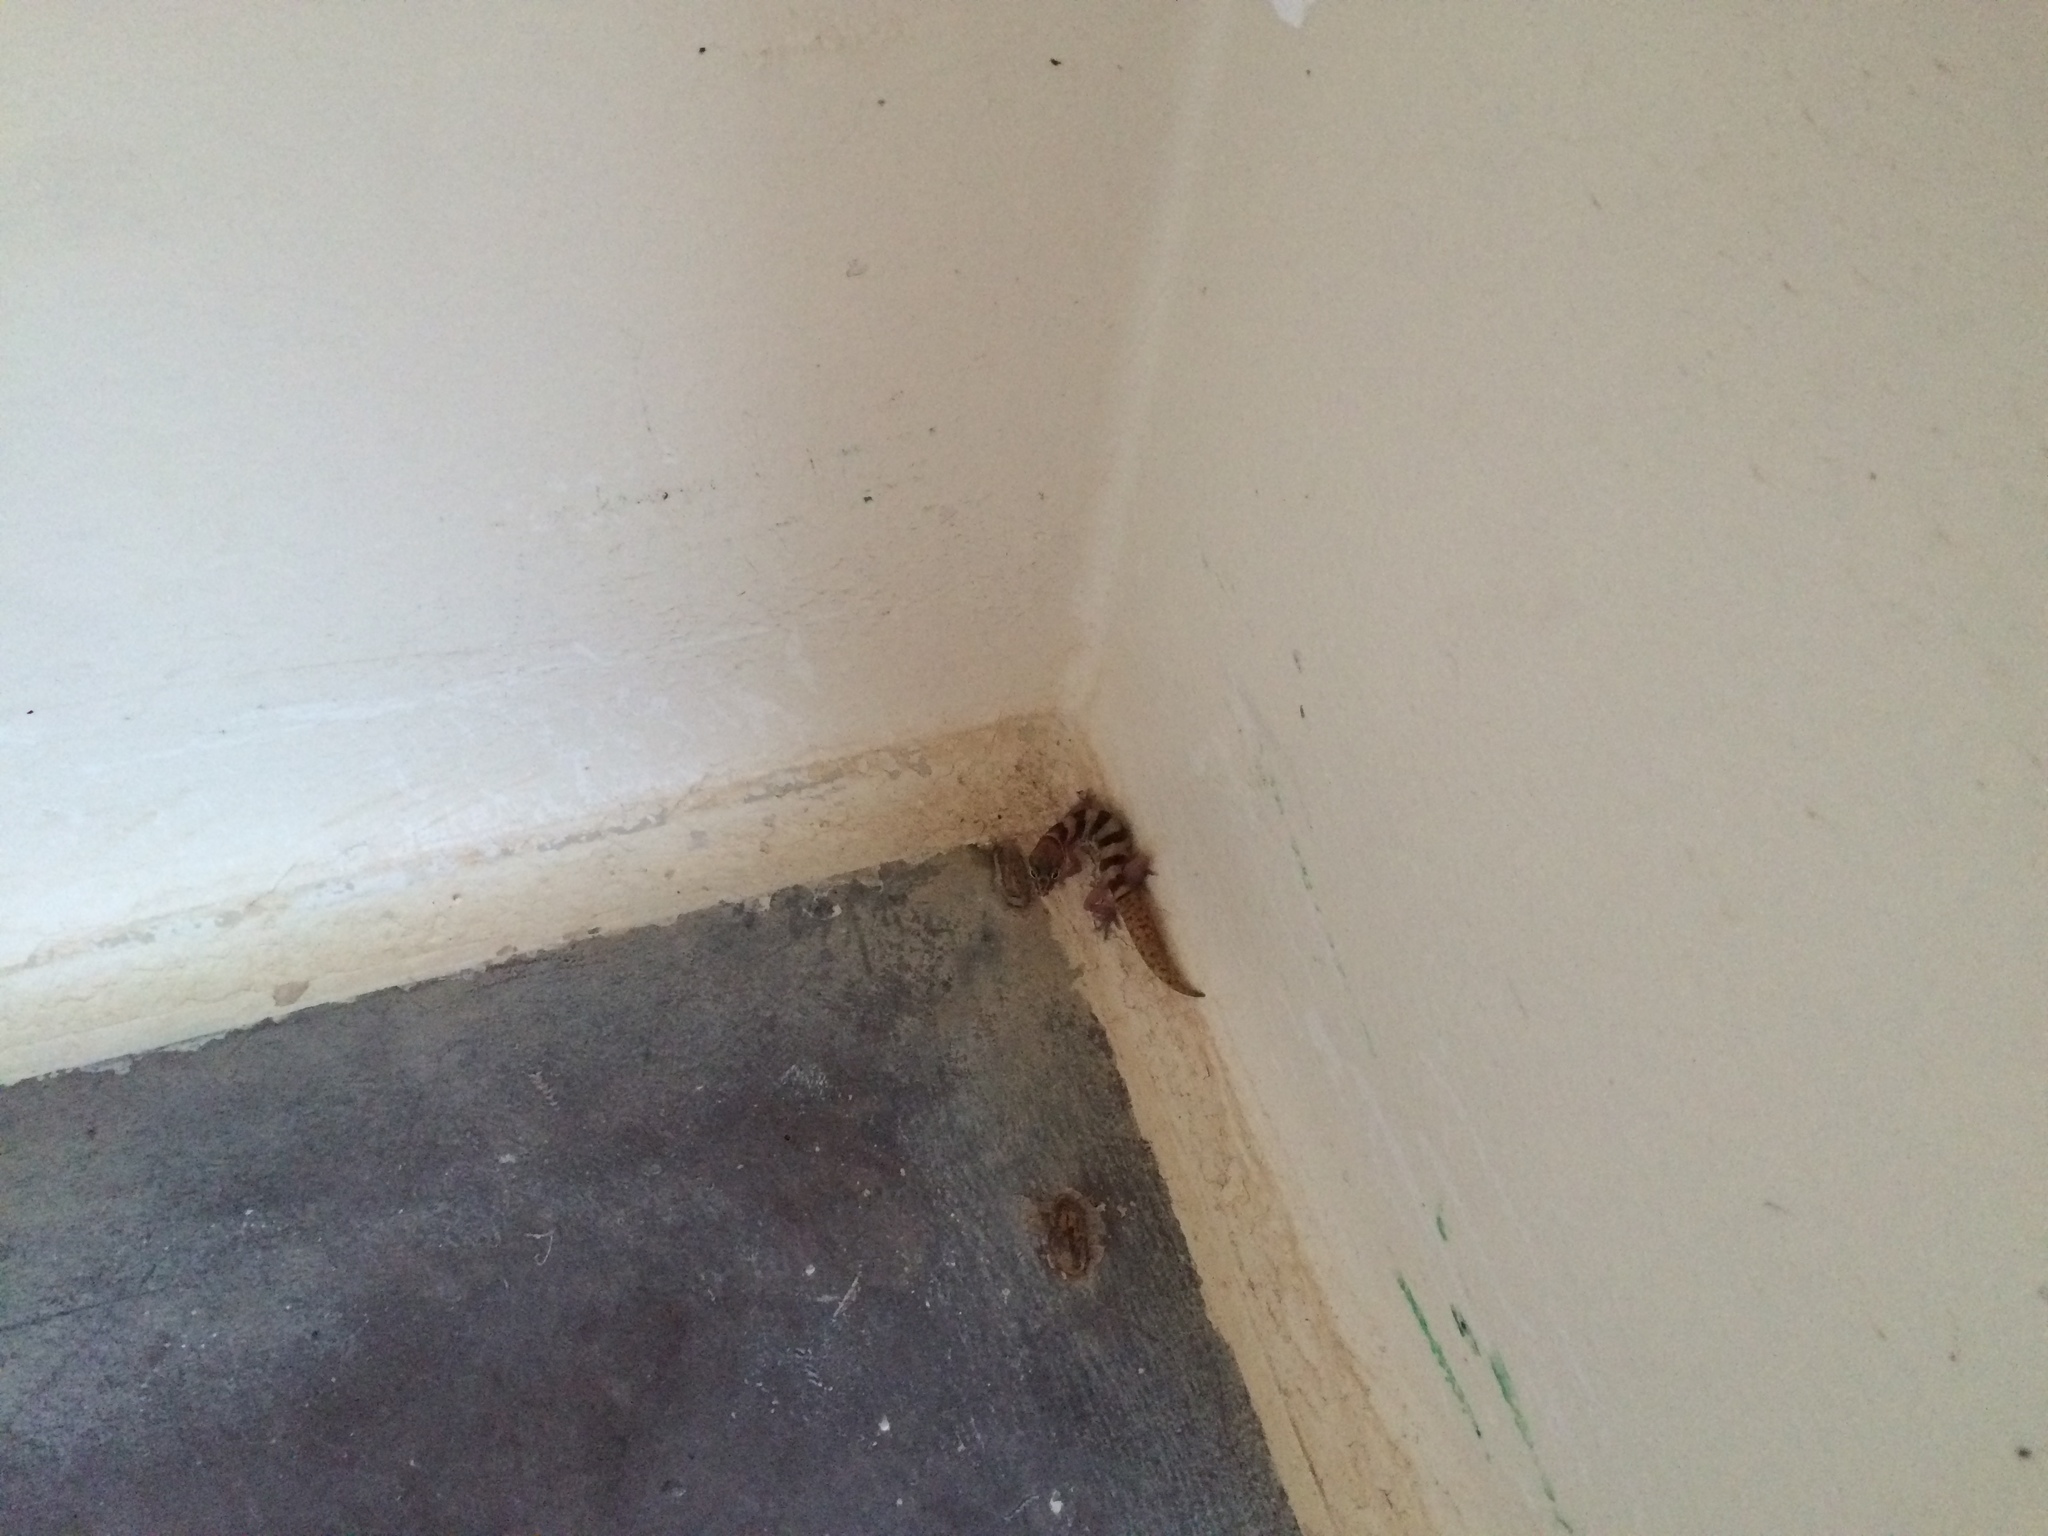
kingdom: Animalia
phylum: Chordata
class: Squamata
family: Eublepharidae
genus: Coleonyx
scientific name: Coleonyx variegatus
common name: Western banded gecko
